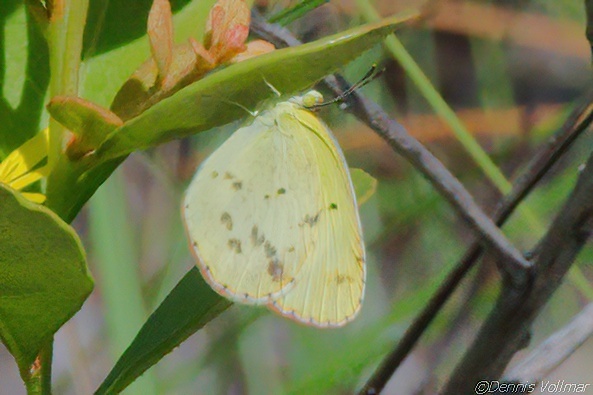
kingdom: Animalia
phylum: Arthropoda
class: Insecta
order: Lepidoptera
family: Pieridae
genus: Pyrisitia
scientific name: Pyrisitia lisa
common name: Little yellow
